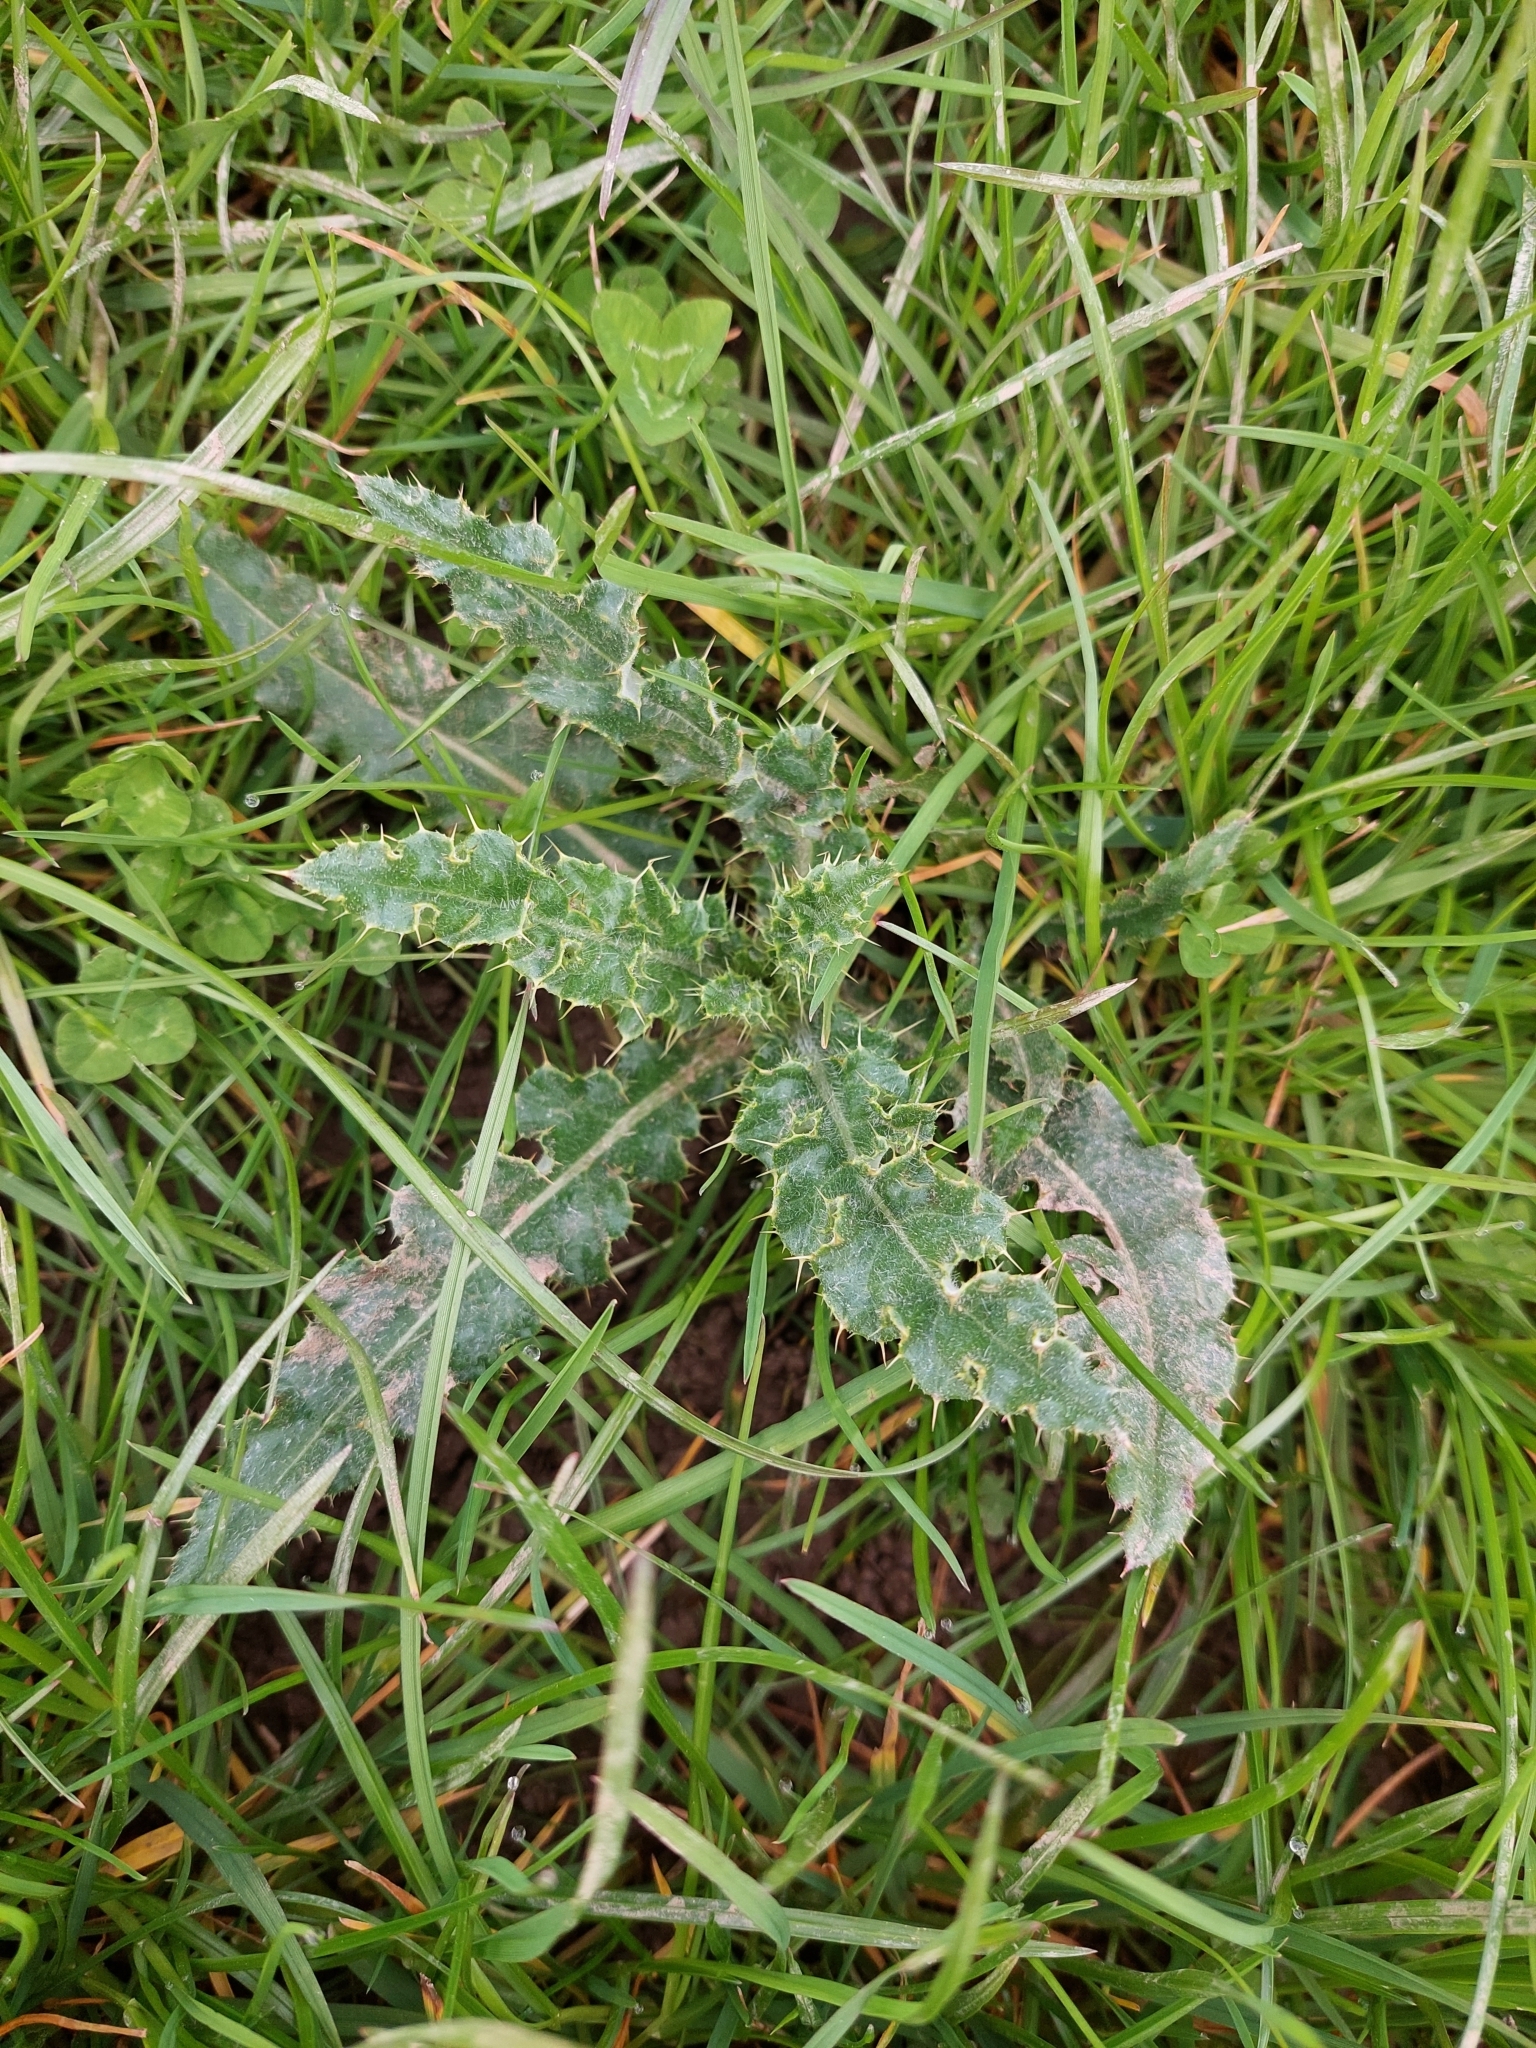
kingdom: Plantae
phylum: Tracheophyta
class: Magnoliopsida
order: Asterales
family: Asteraceae
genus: Cirsium
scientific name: Cirsium arvense
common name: Creeping thistle
